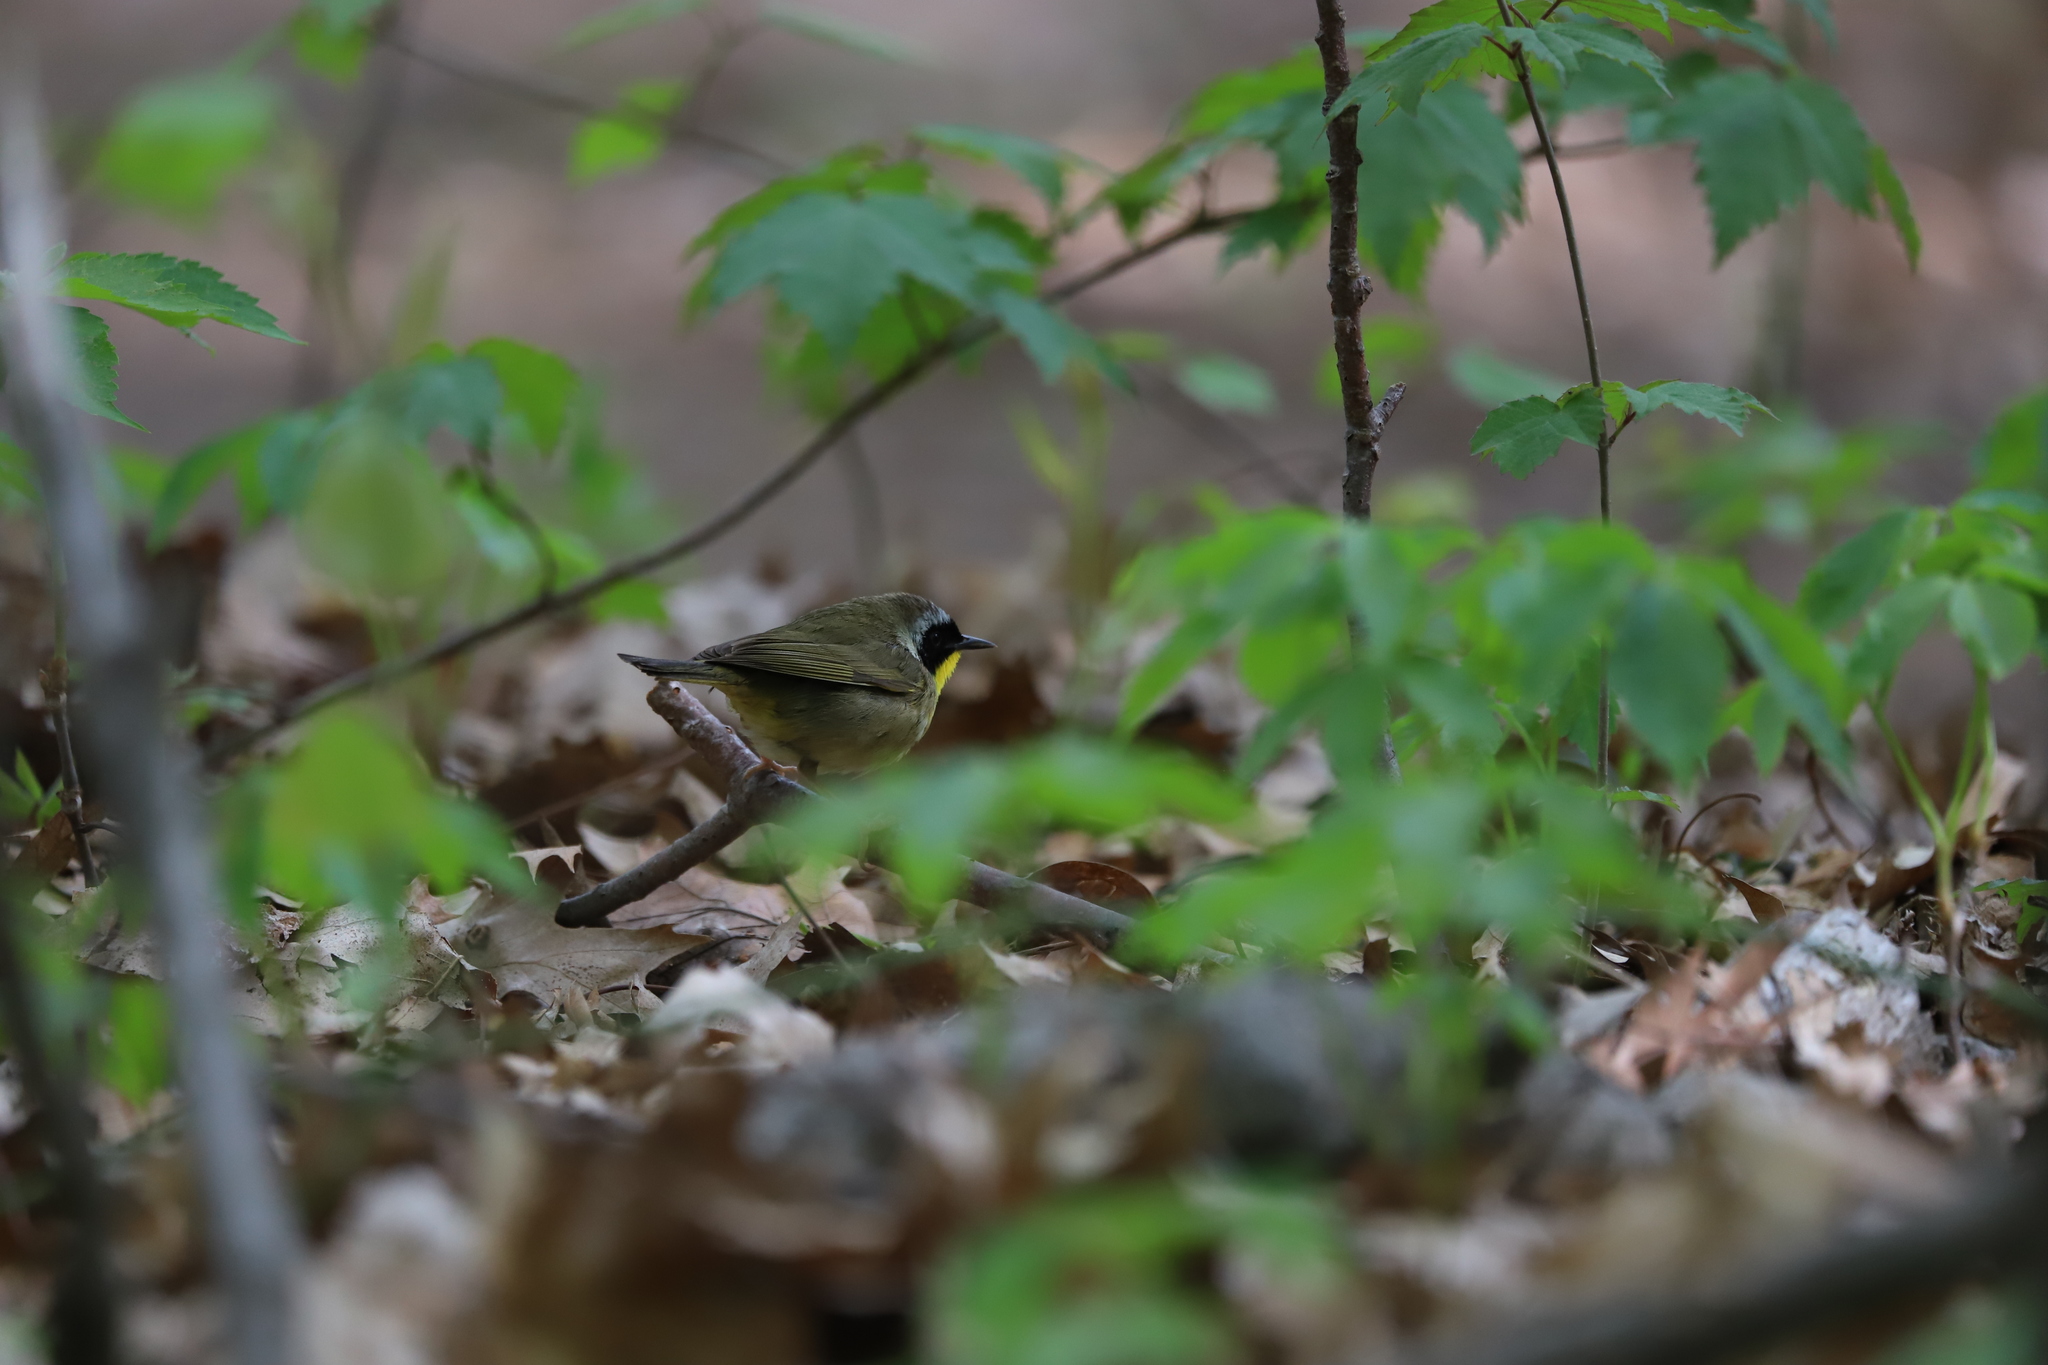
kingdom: Animalia
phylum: Chordata
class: Aves
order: Passeriformes
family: Parulidae
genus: Geothlypis
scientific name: Geothlypis trichas
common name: Common yellowthroat
